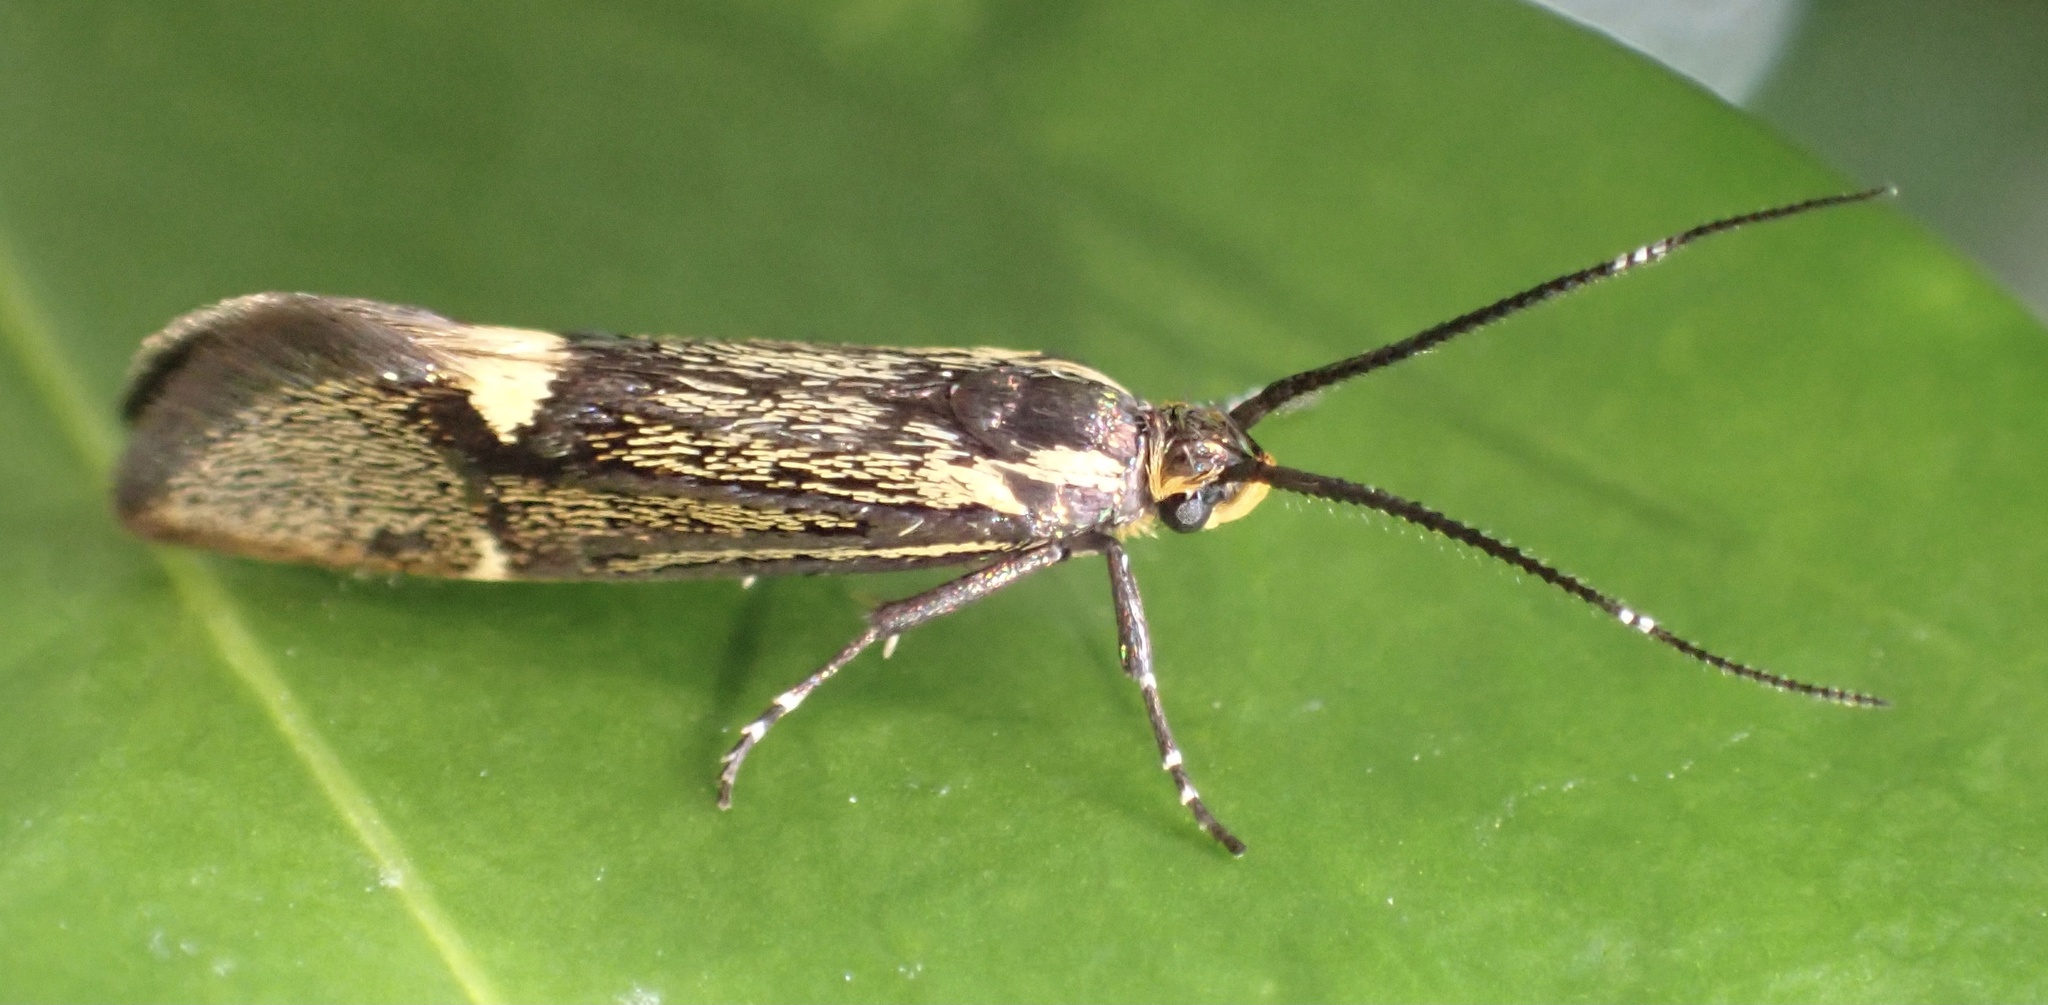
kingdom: Animalia
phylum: Arthropoda
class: Insecta
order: Lepidoptera
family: Oecophoridae
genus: Dafa
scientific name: Dafa Esperia sulphurella
